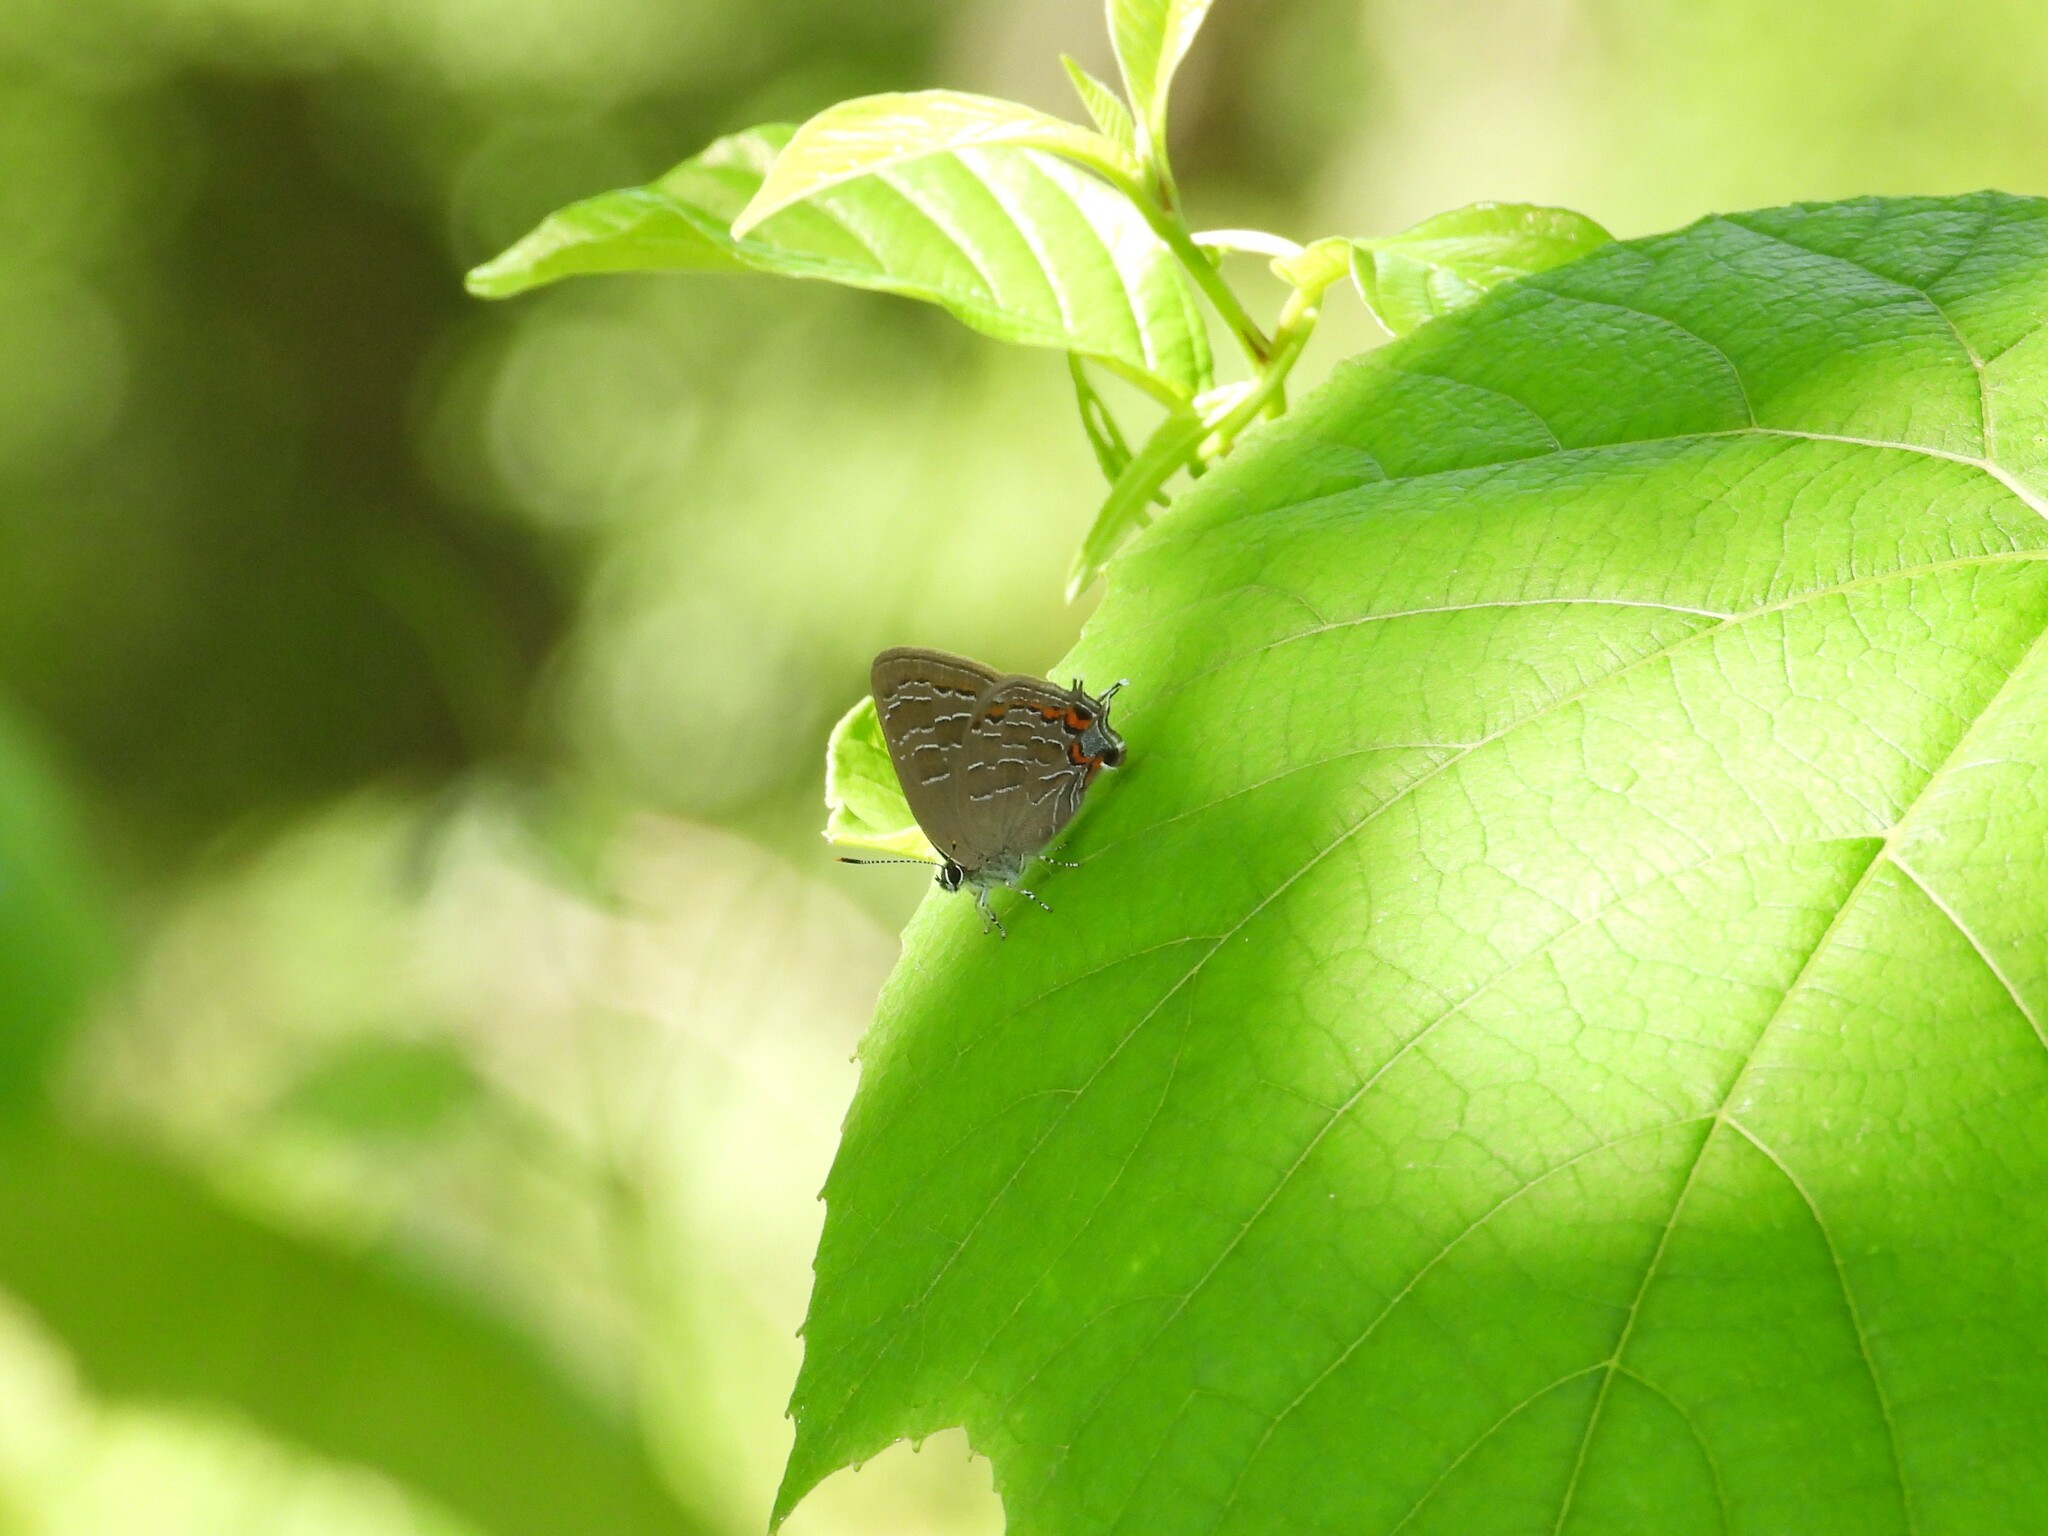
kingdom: Animalia
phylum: Arthropoda
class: Insecta
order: Lepidoptera
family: Lycaenidae
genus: Satyrium
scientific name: Satyrium liparops
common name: Striped hairstreak
